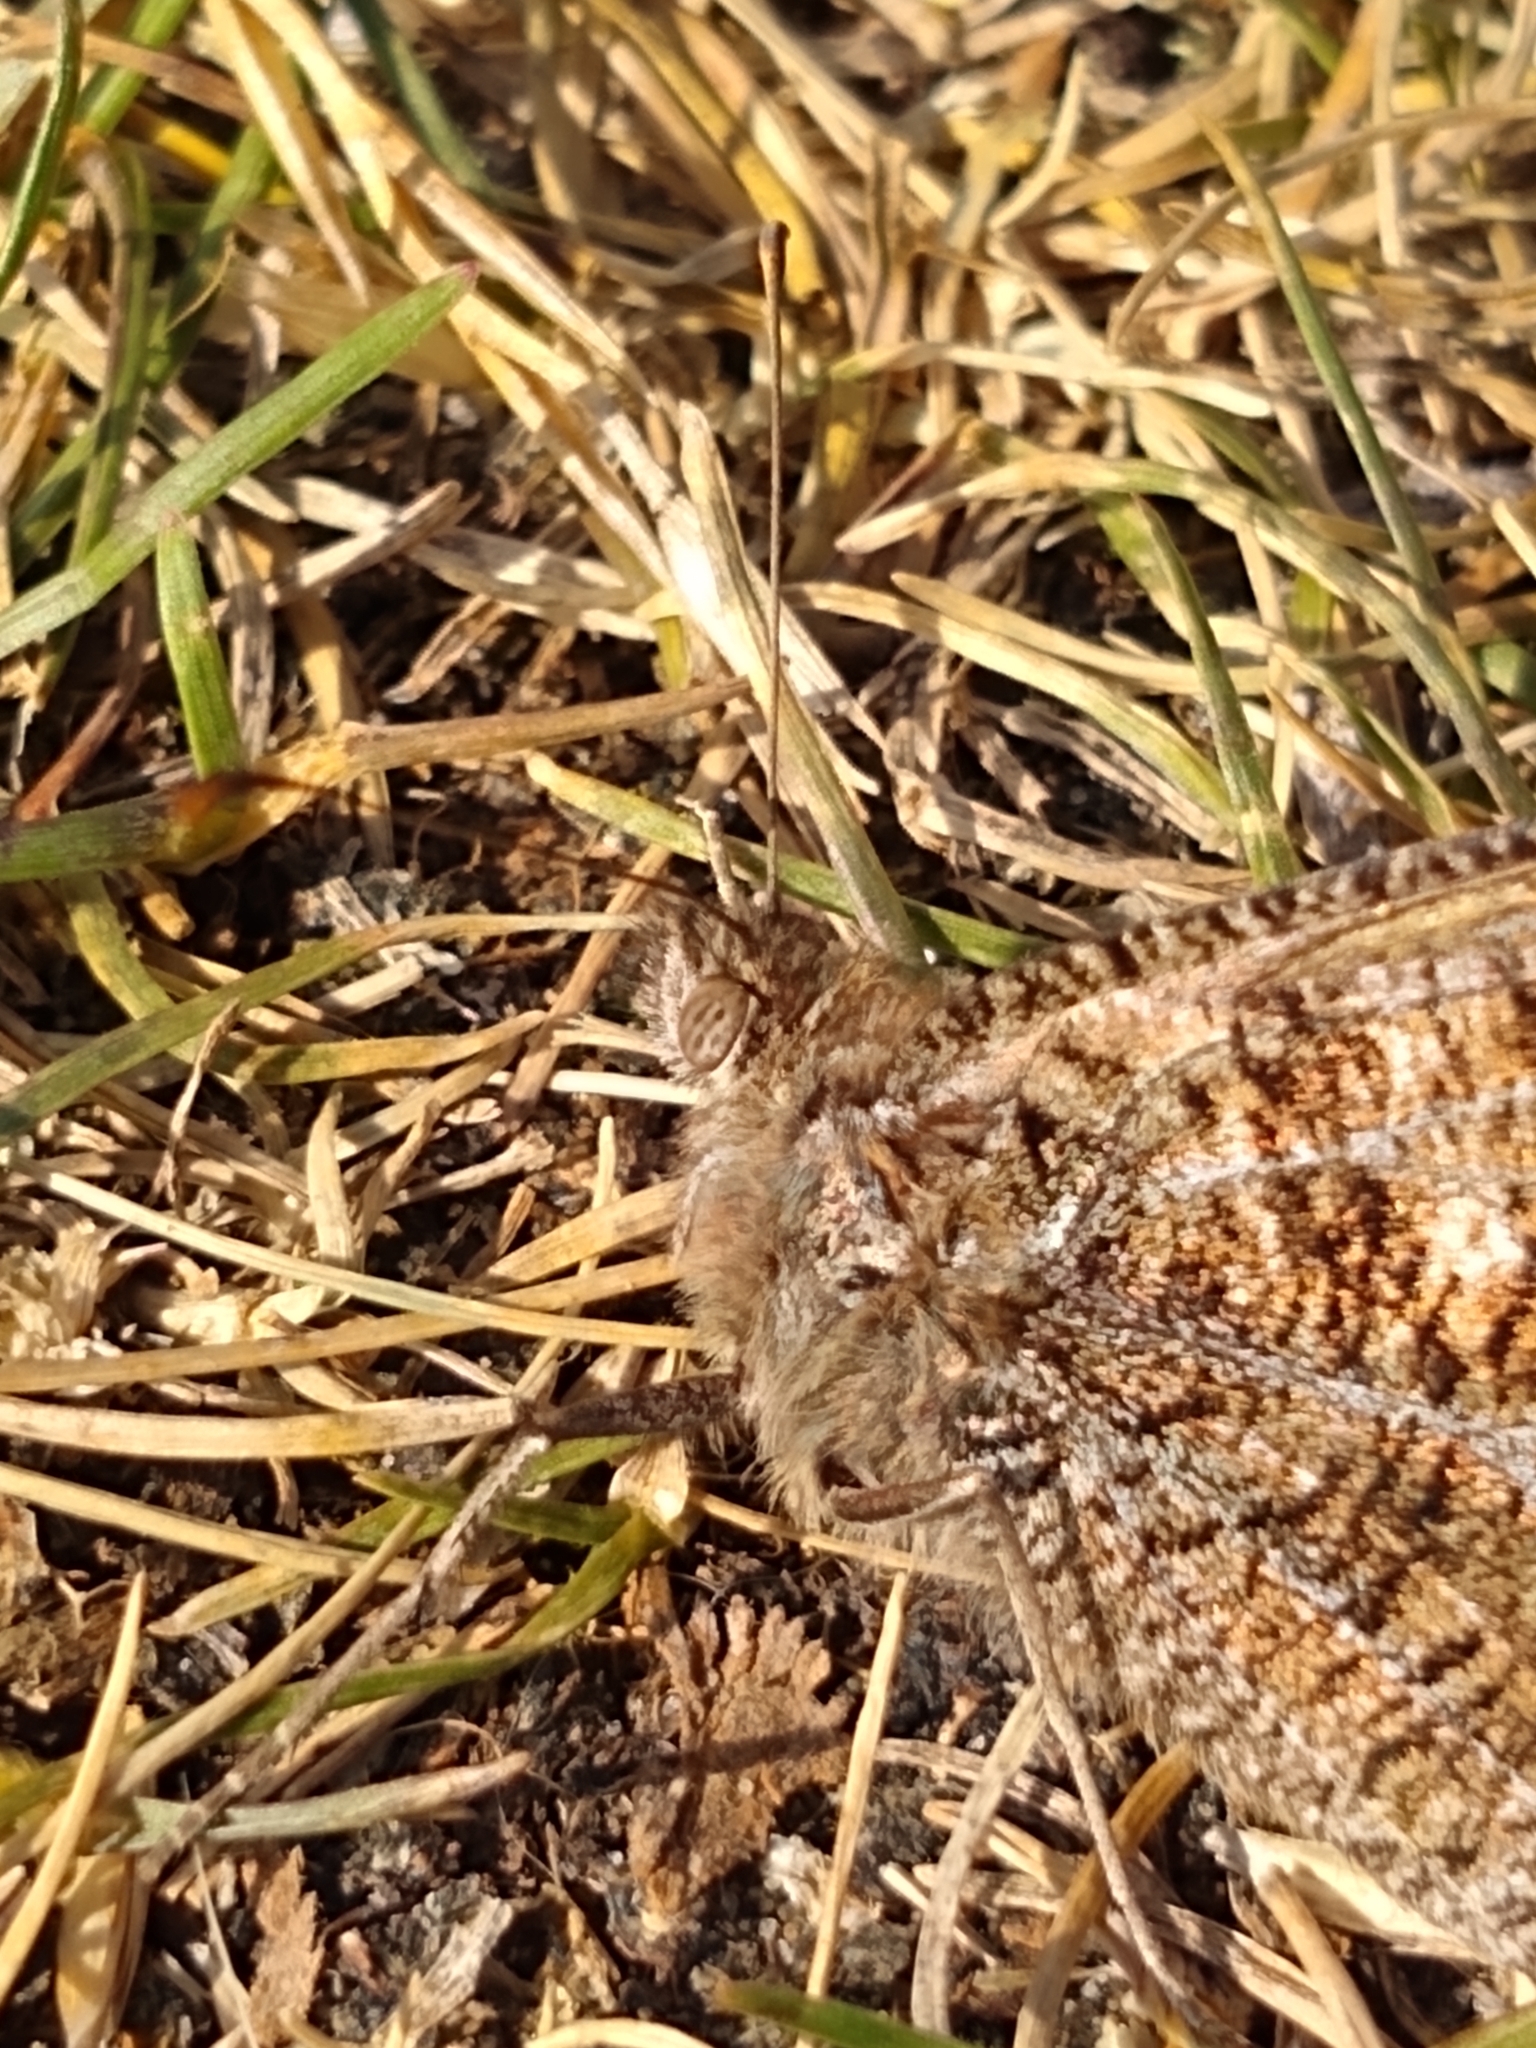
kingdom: Animalia
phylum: Arthropoda
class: Insecta
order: Lepidoptera
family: Nymphalidae
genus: Hipparchia
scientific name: Hipparchia semele
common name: Grayling
